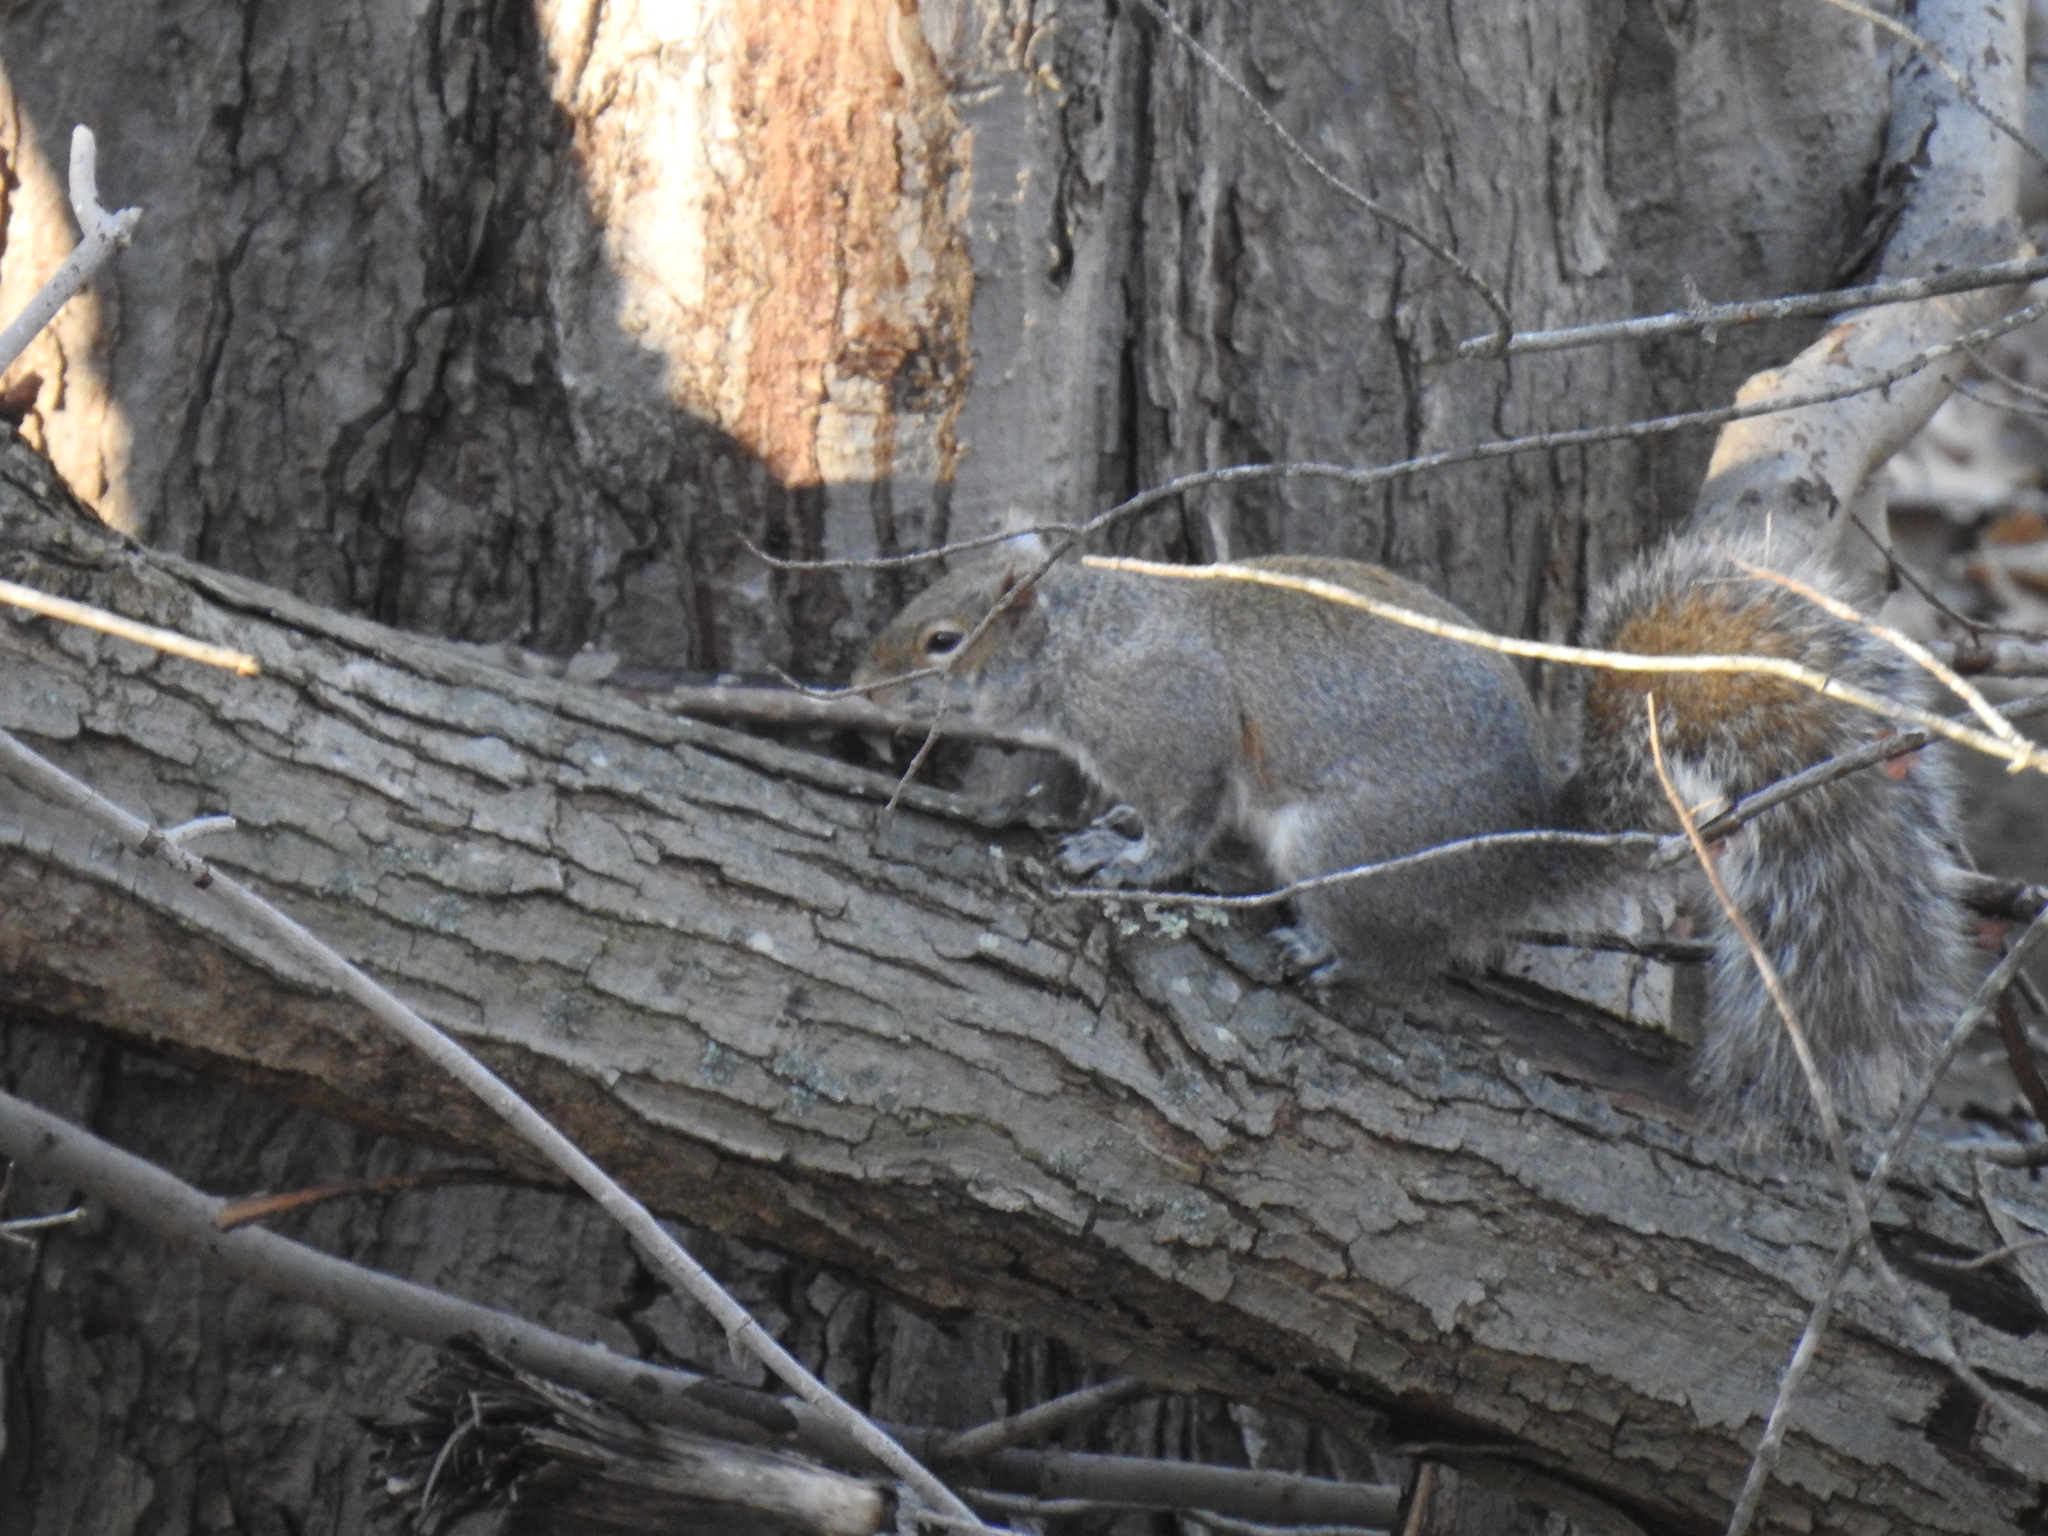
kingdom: Animalia
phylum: Chordata
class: Mammalia
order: Rodentia
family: Sciuridae
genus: Sciurus
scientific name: Sciurus carolinensis
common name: Eastern gray squirrel
